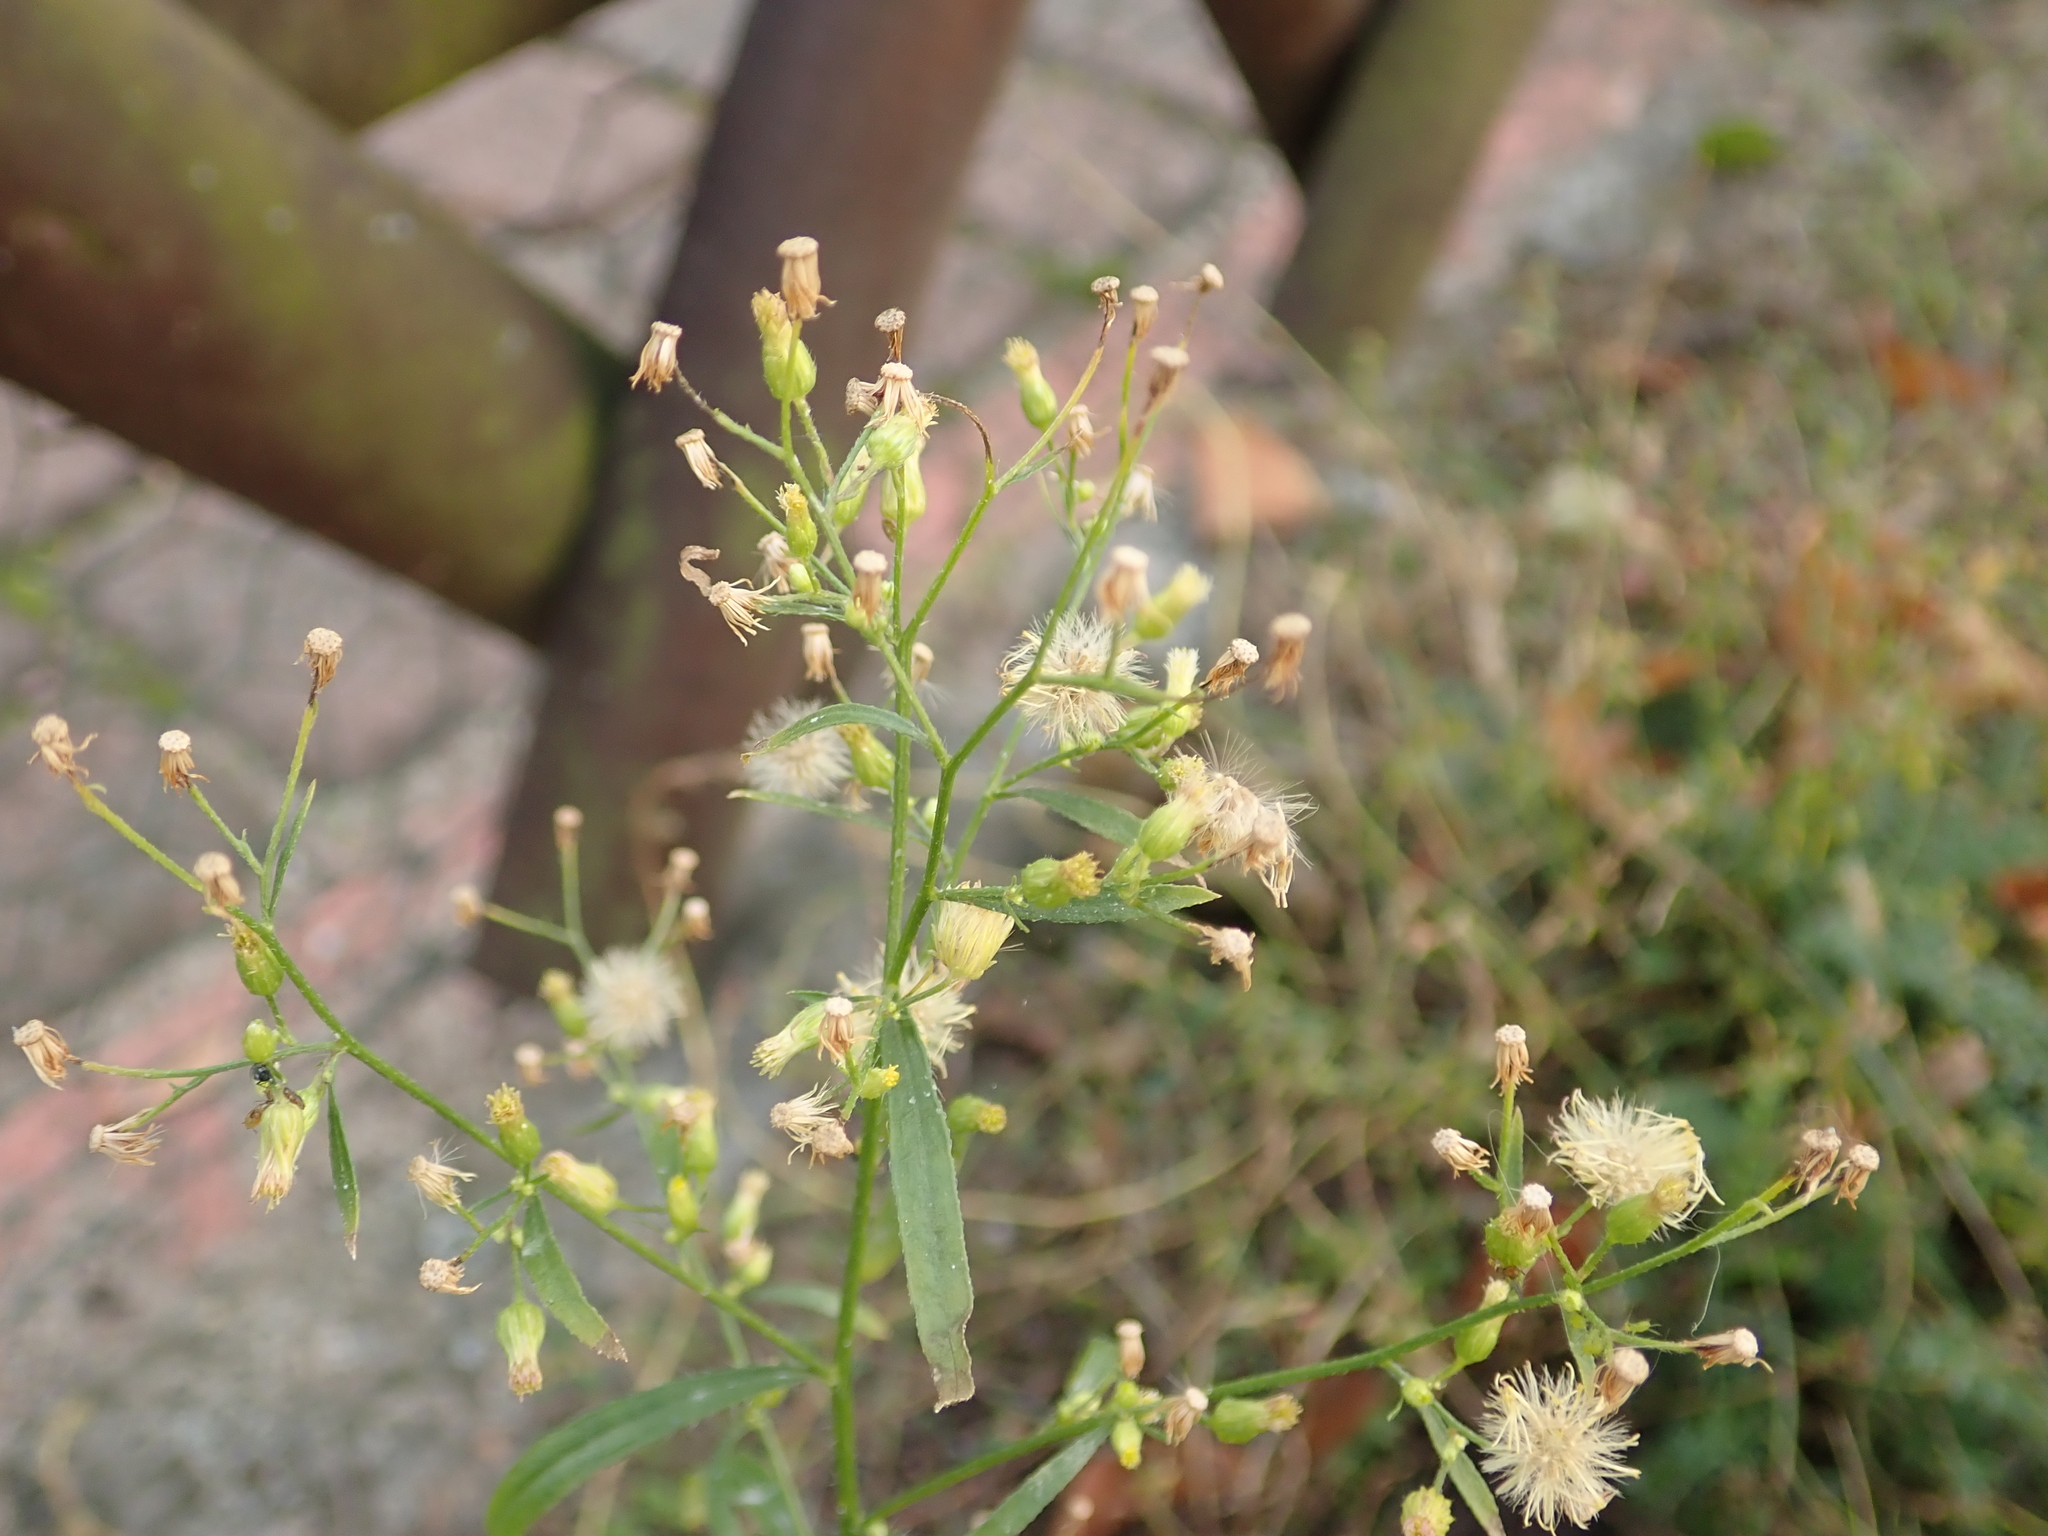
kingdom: Plantae
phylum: Tracheophyta
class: Magnoliopsida
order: Asterales
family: Asteraceae
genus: Erigeron
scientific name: Erigeron canadensis
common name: Canadian fleabane
